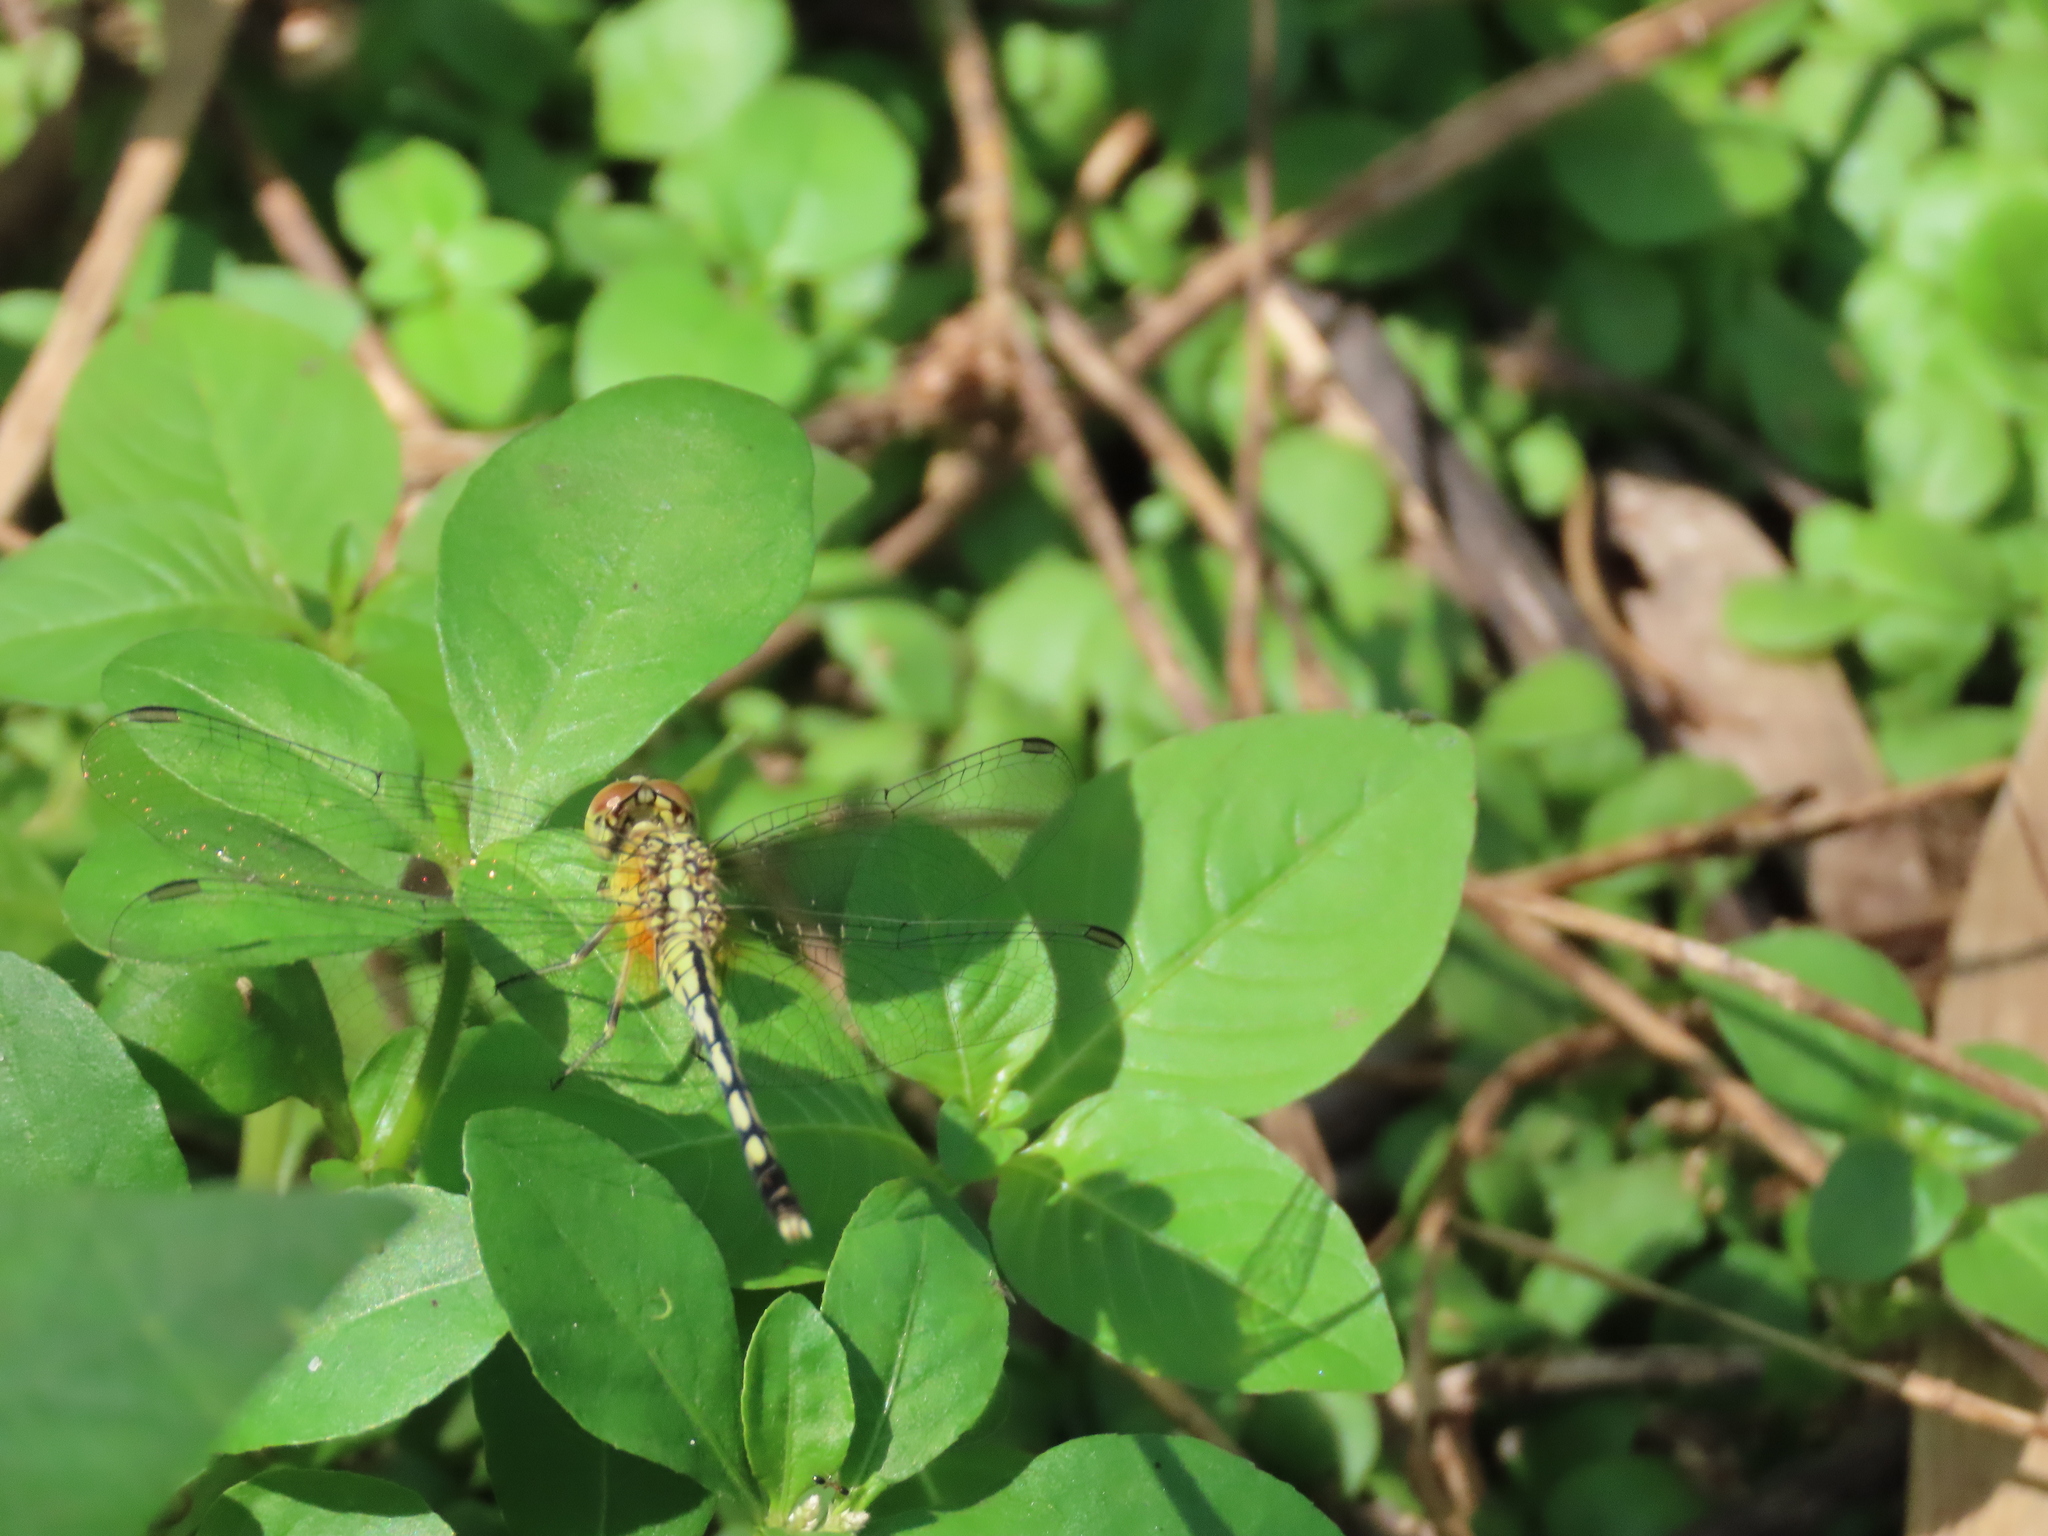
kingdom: Animalia
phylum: Arthropoda
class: Insecta
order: Odonata
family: Libellulidae
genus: Diplacodes
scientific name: Diplacodes trivialis
